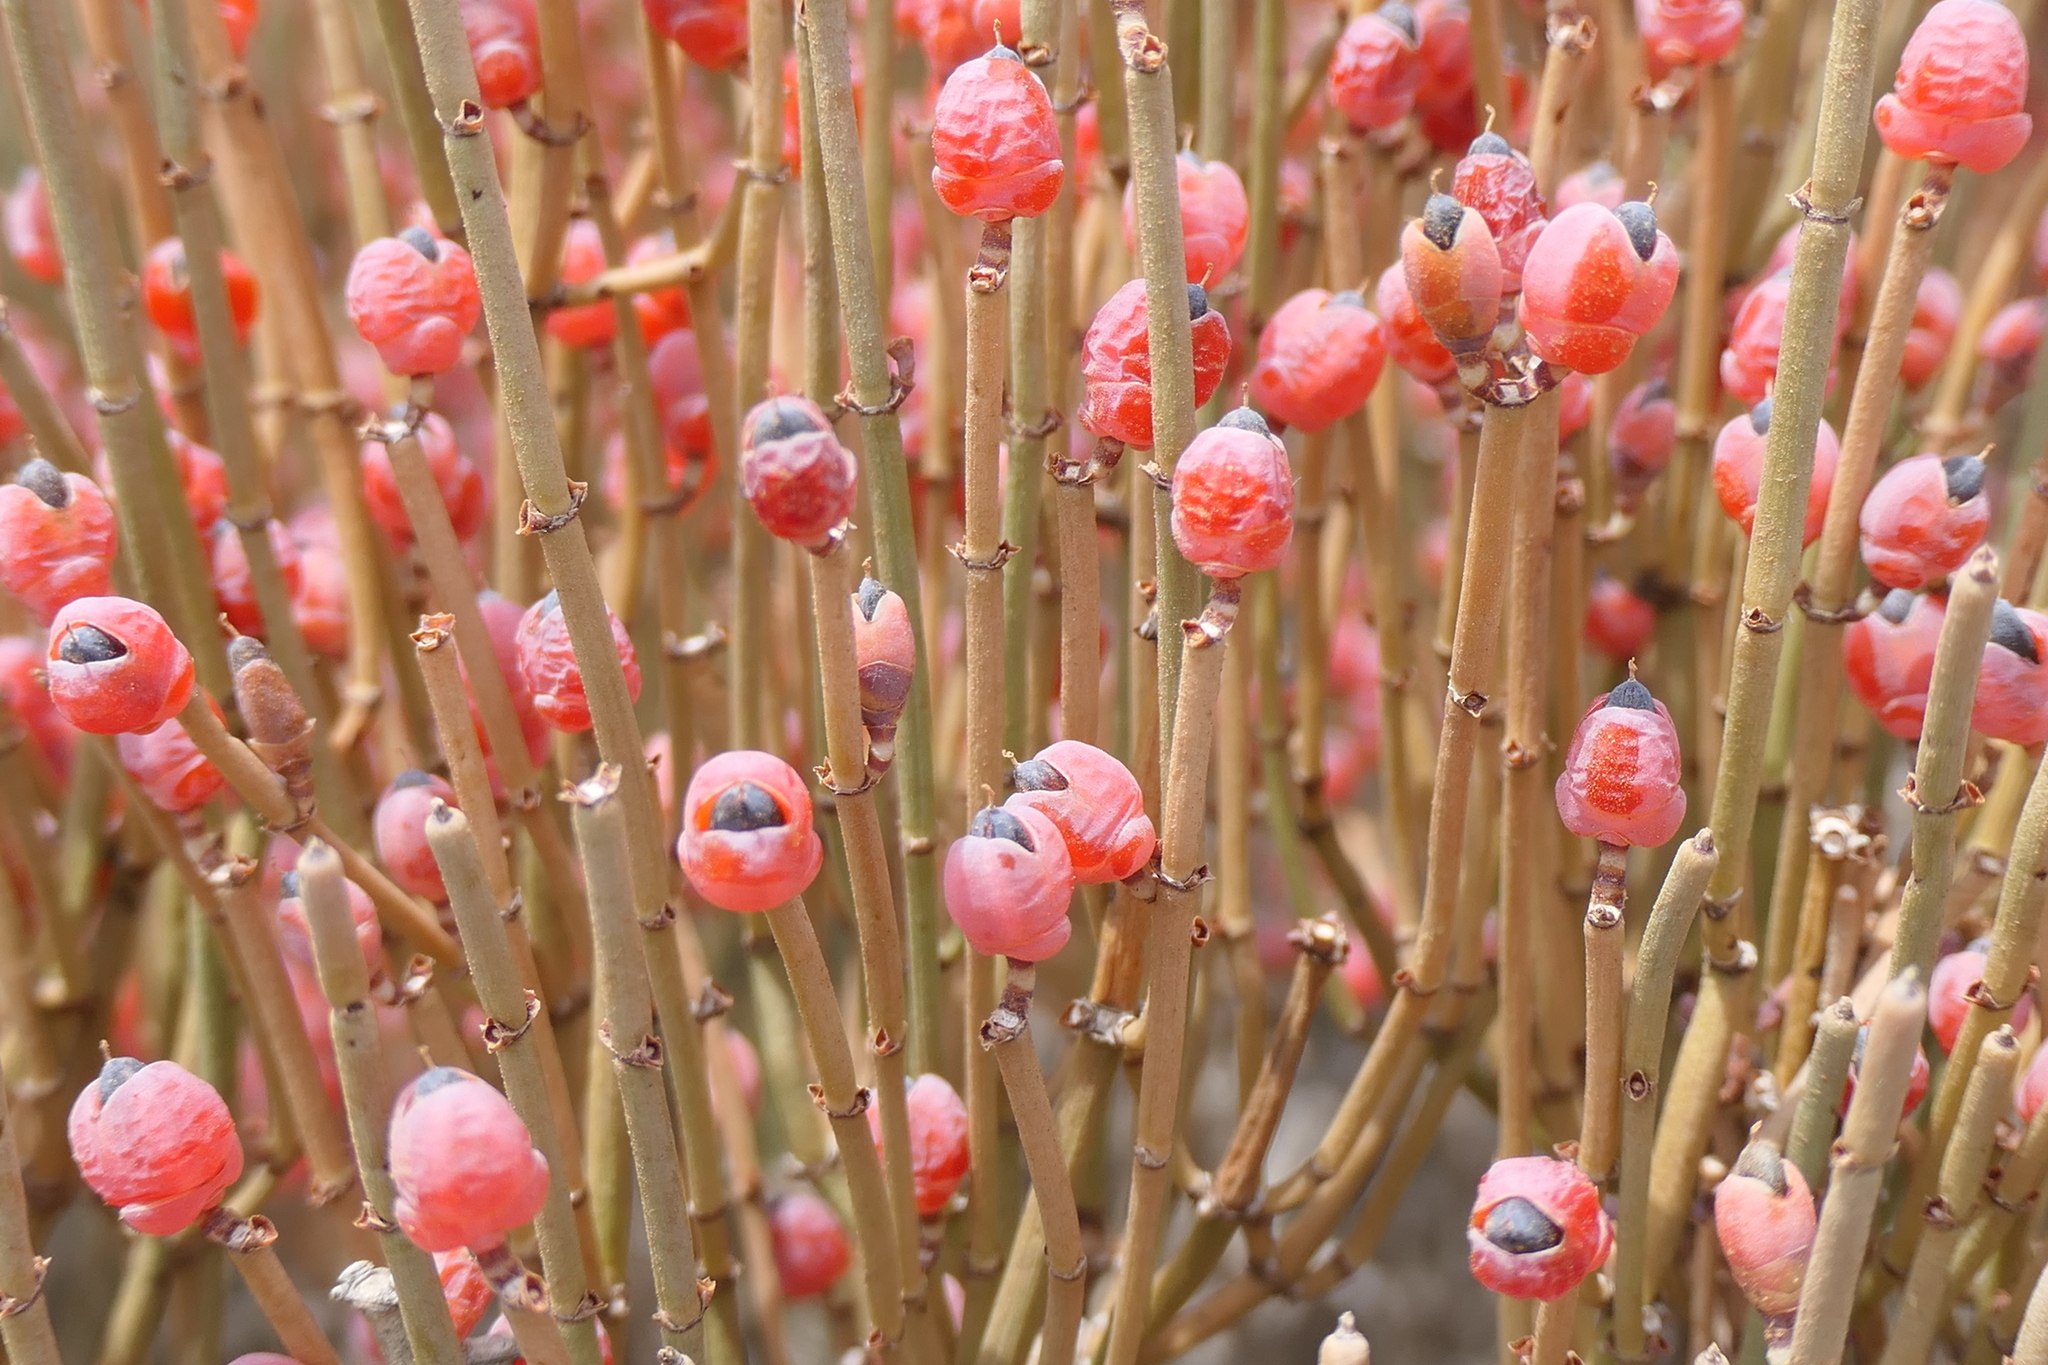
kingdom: Plantae
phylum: Tracheophyta
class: Gnetopsida
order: Ephedrales
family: Ephedraceae
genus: Ephedra
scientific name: Ephedra fragilis
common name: Joint pine
